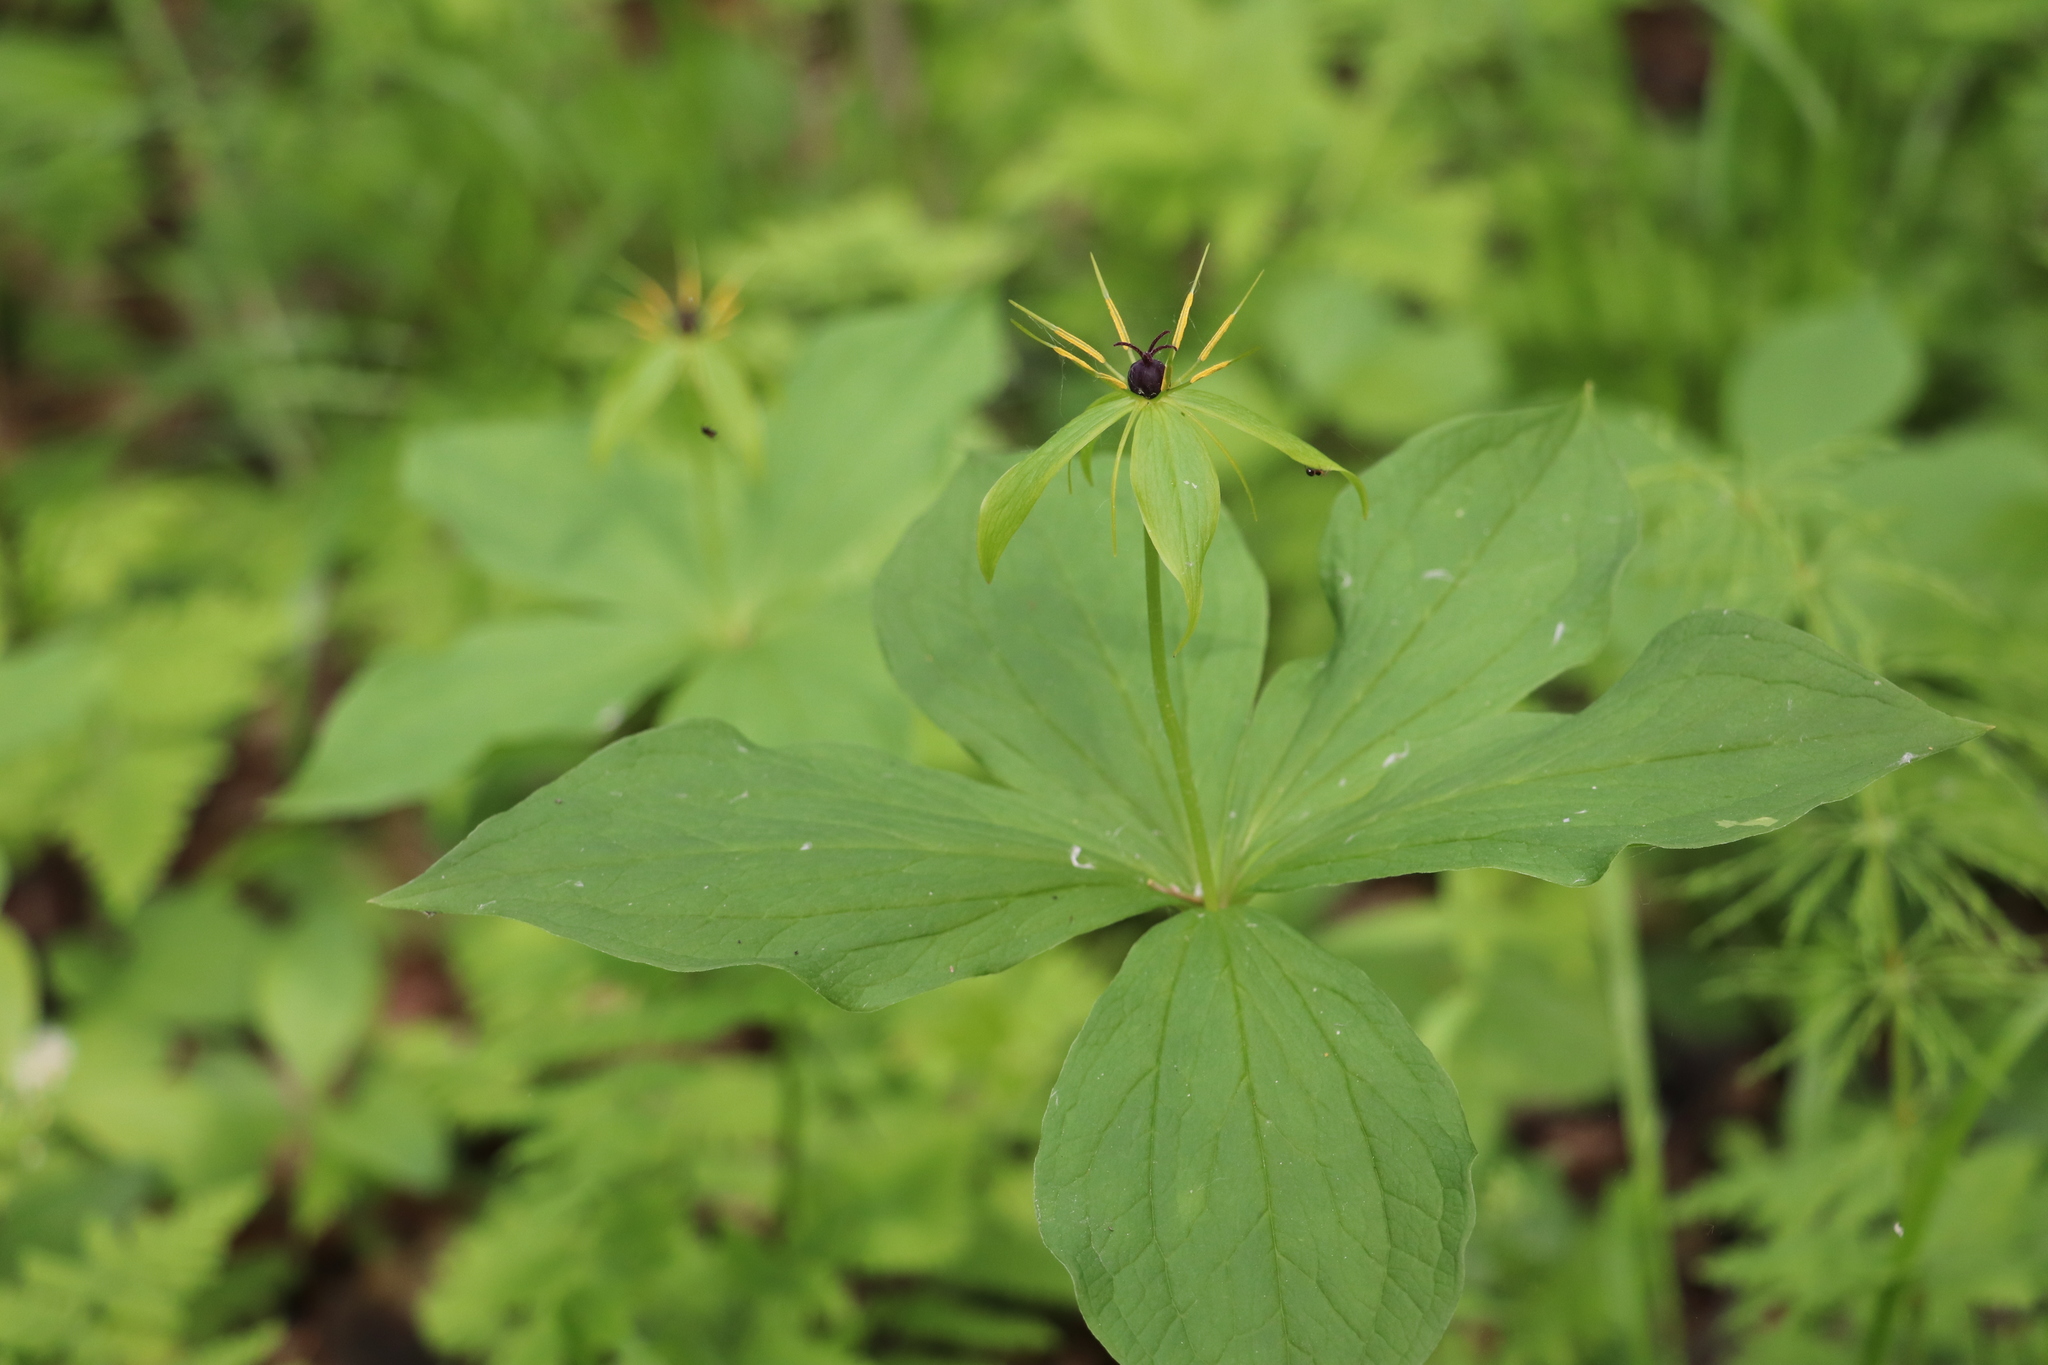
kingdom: Plantae
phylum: Tracheophyta
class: Liliopsida
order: Liliales
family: Melanthiaceae
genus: Paris
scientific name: Paris quadrifolia
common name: Herb-paris
